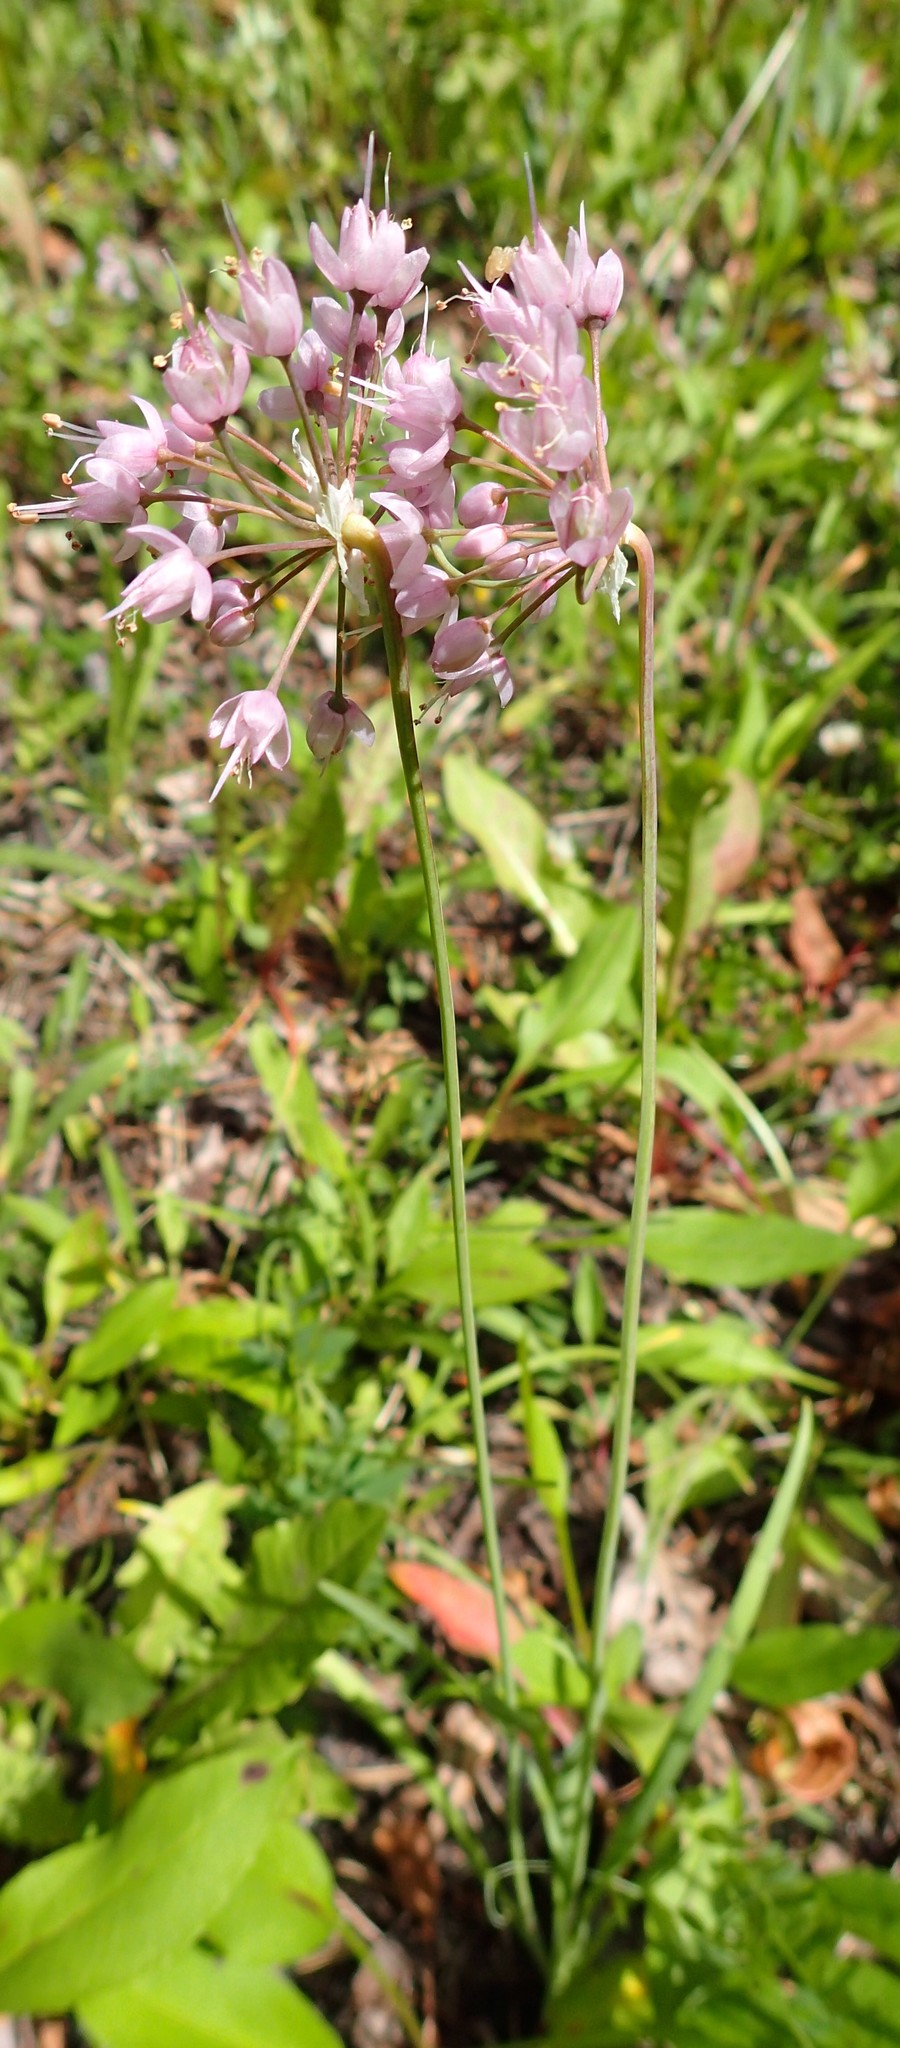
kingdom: Plantae
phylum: Tracheophyta
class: Liliopsida
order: Asparagales
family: Amaryllidaceae
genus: Allium
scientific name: Allium cernuum
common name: Nodding onion
